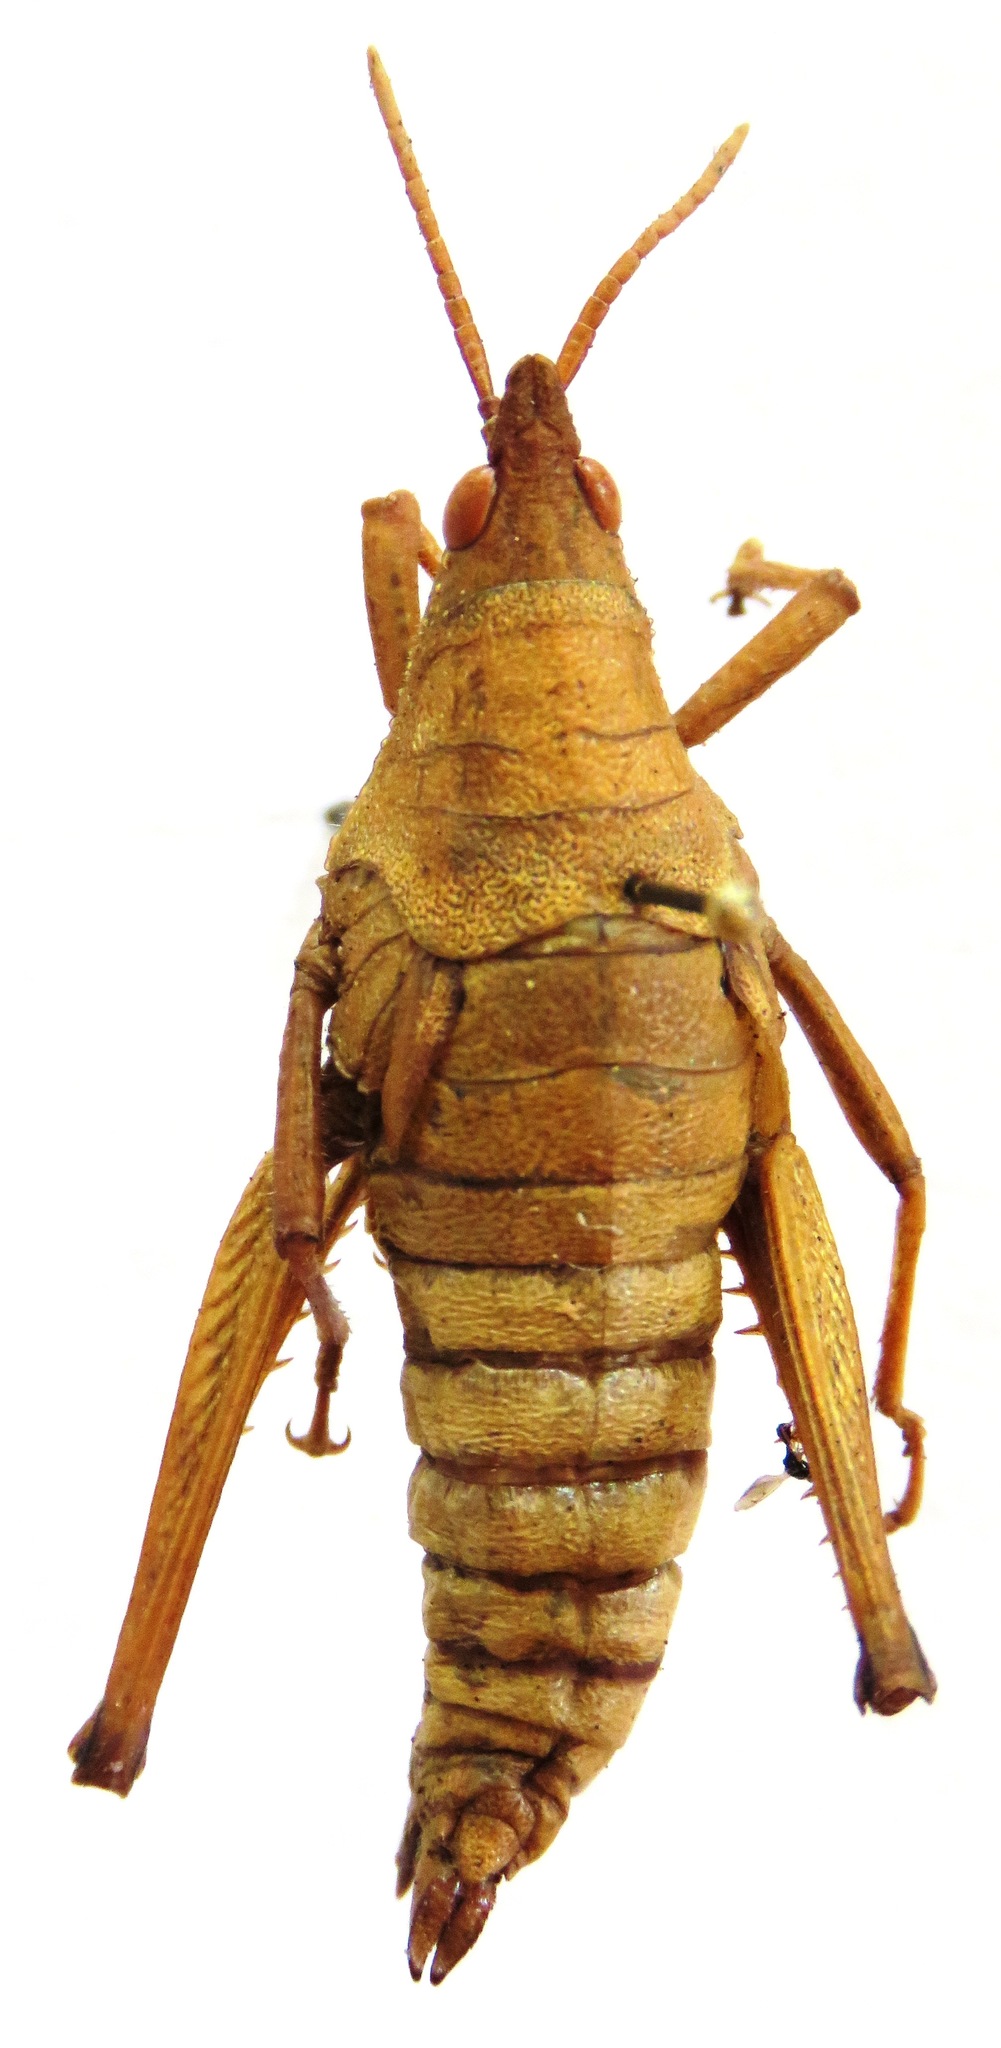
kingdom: Animalia
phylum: Arthropoda
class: Insecta
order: Orthoptera
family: Pyrgomorphidae
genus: Prosphena
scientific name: Prosphena scudderi
